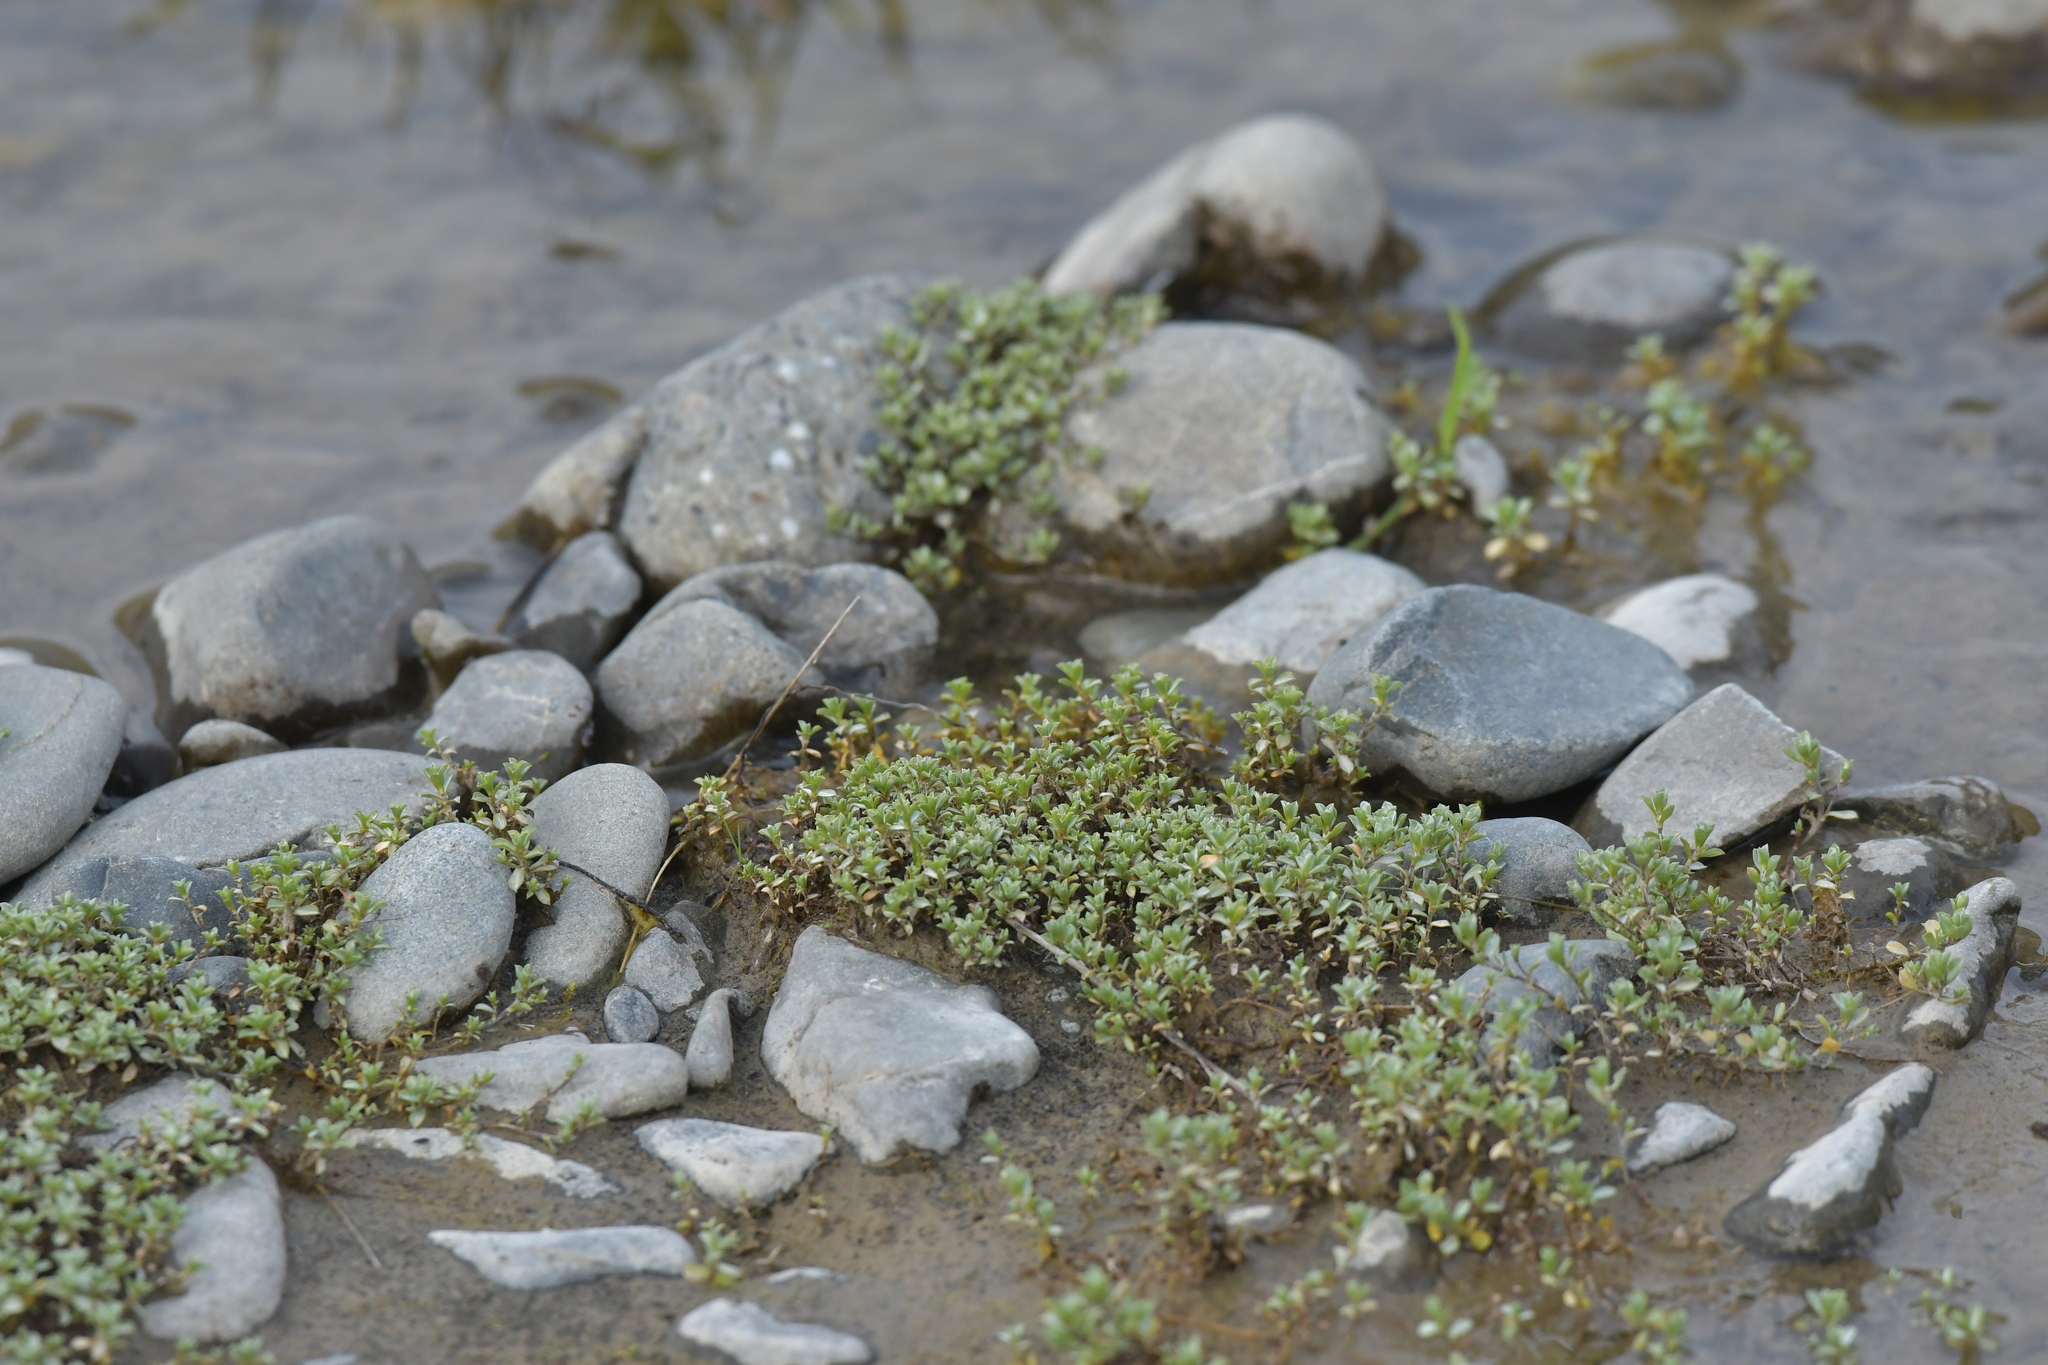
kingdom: Plantae
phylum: Tracheophyta
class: Magnoliopsida
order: Asterales
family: Asteraceae
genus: Raoulia
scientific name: Raoulia tenuicaulis
